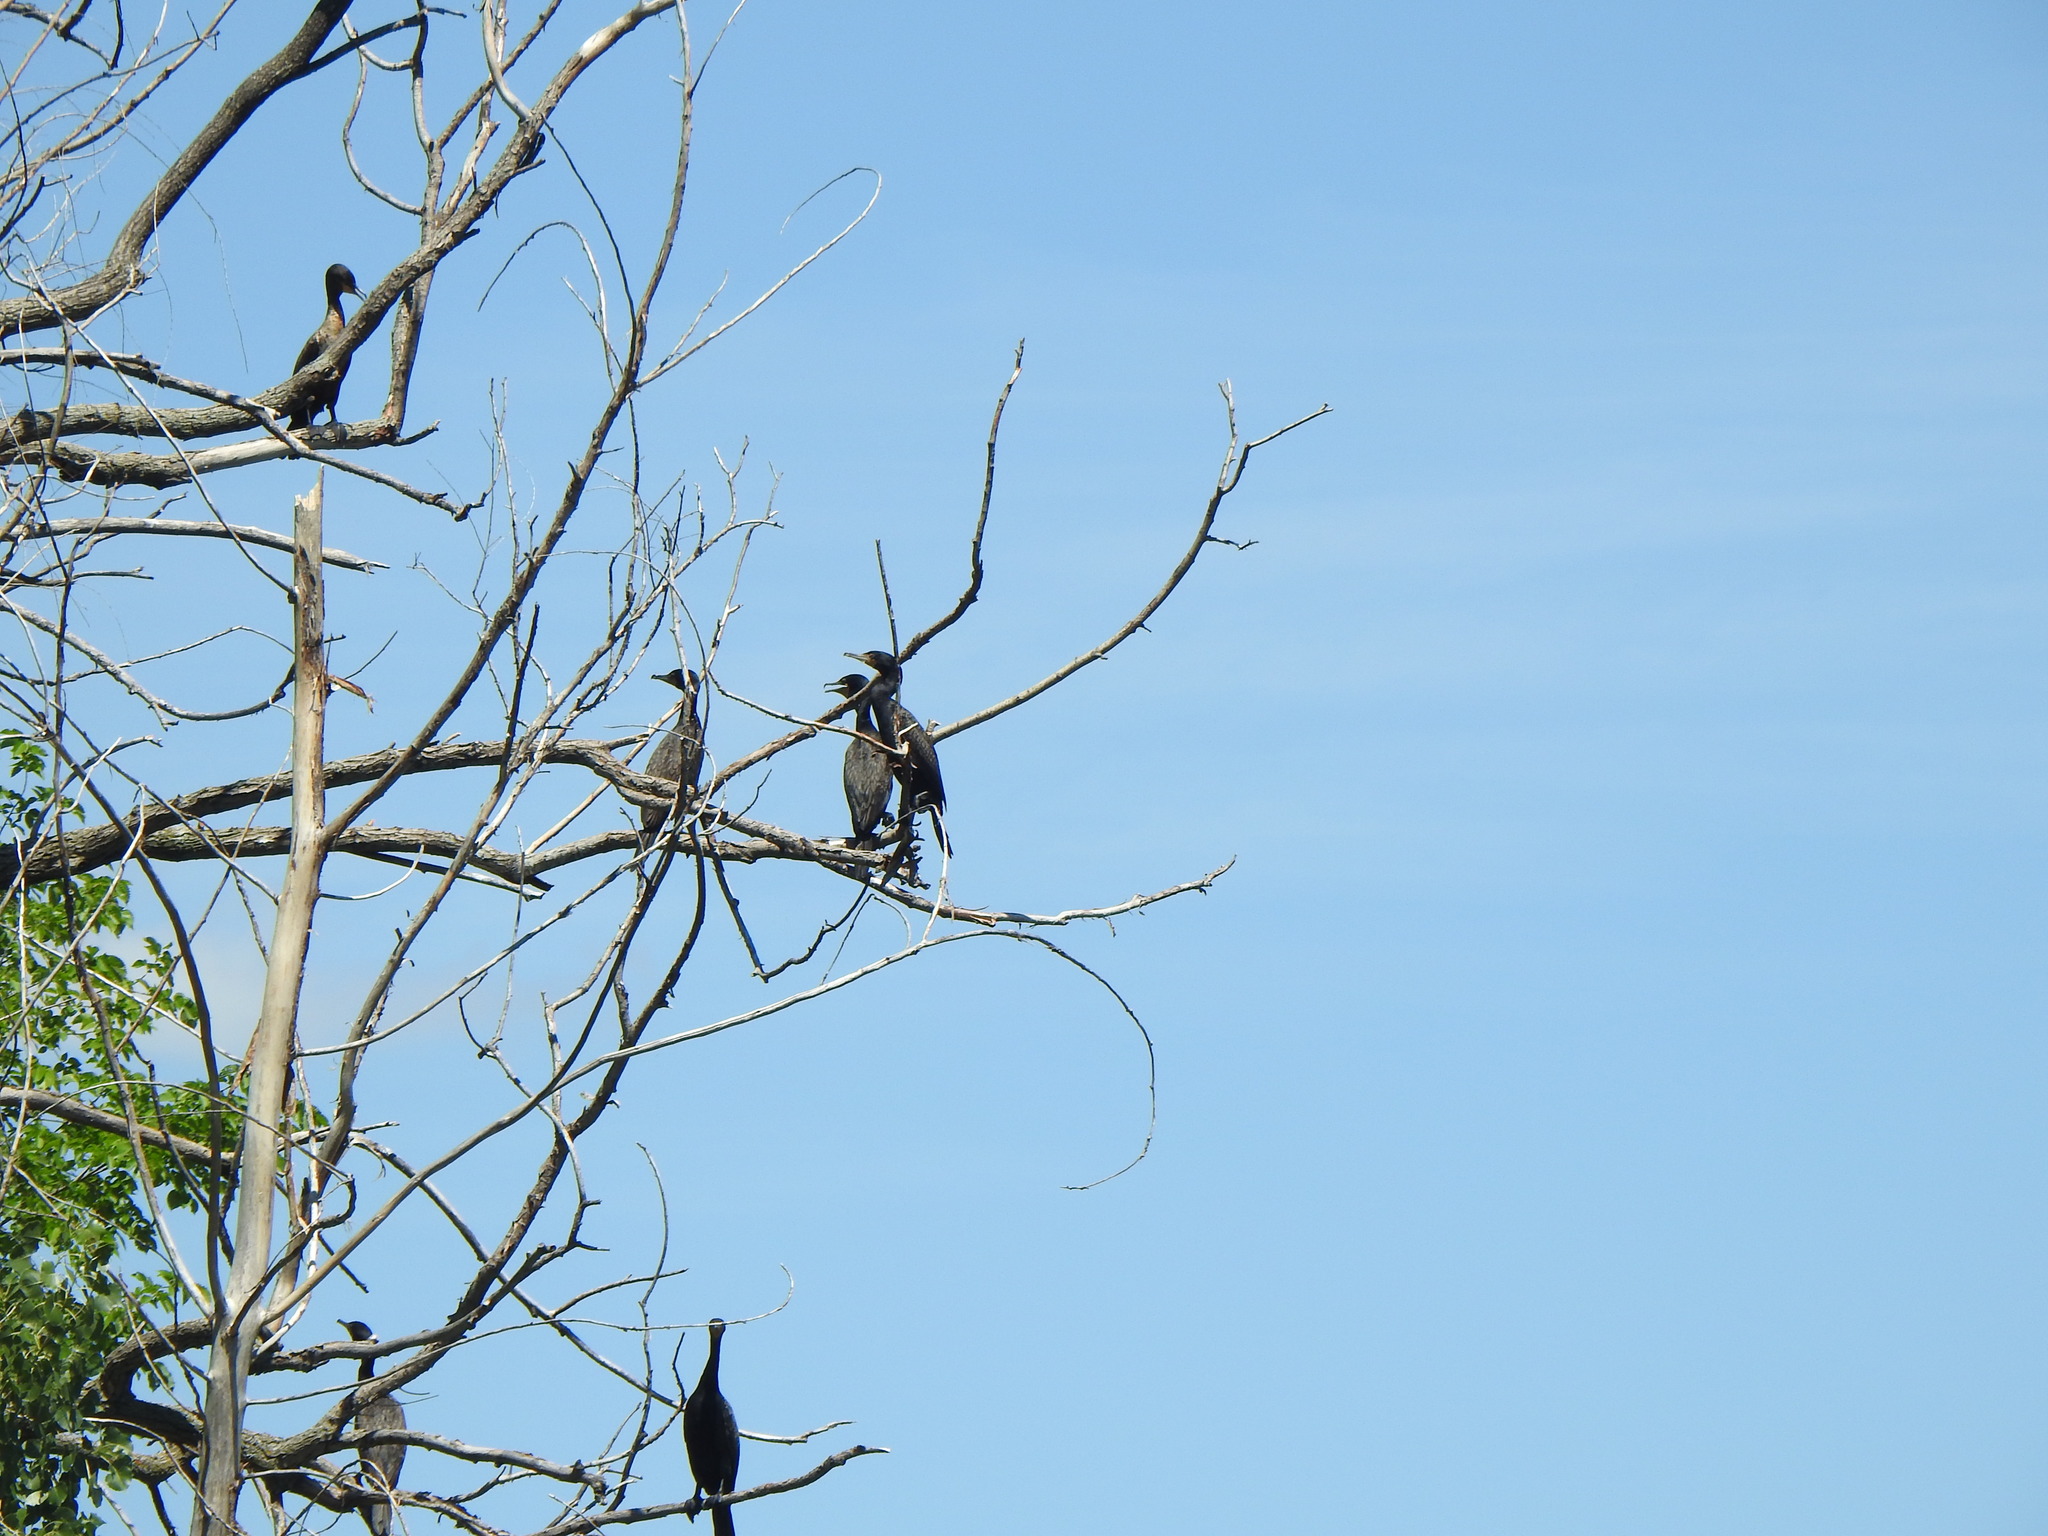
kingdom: Animalia
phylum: Chordata
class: Aves
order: Suliformes
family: Phalacrocoracidae
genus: Phalacrocorax
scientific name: Phalacrocorax auritus
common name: Double-crested cormorant
